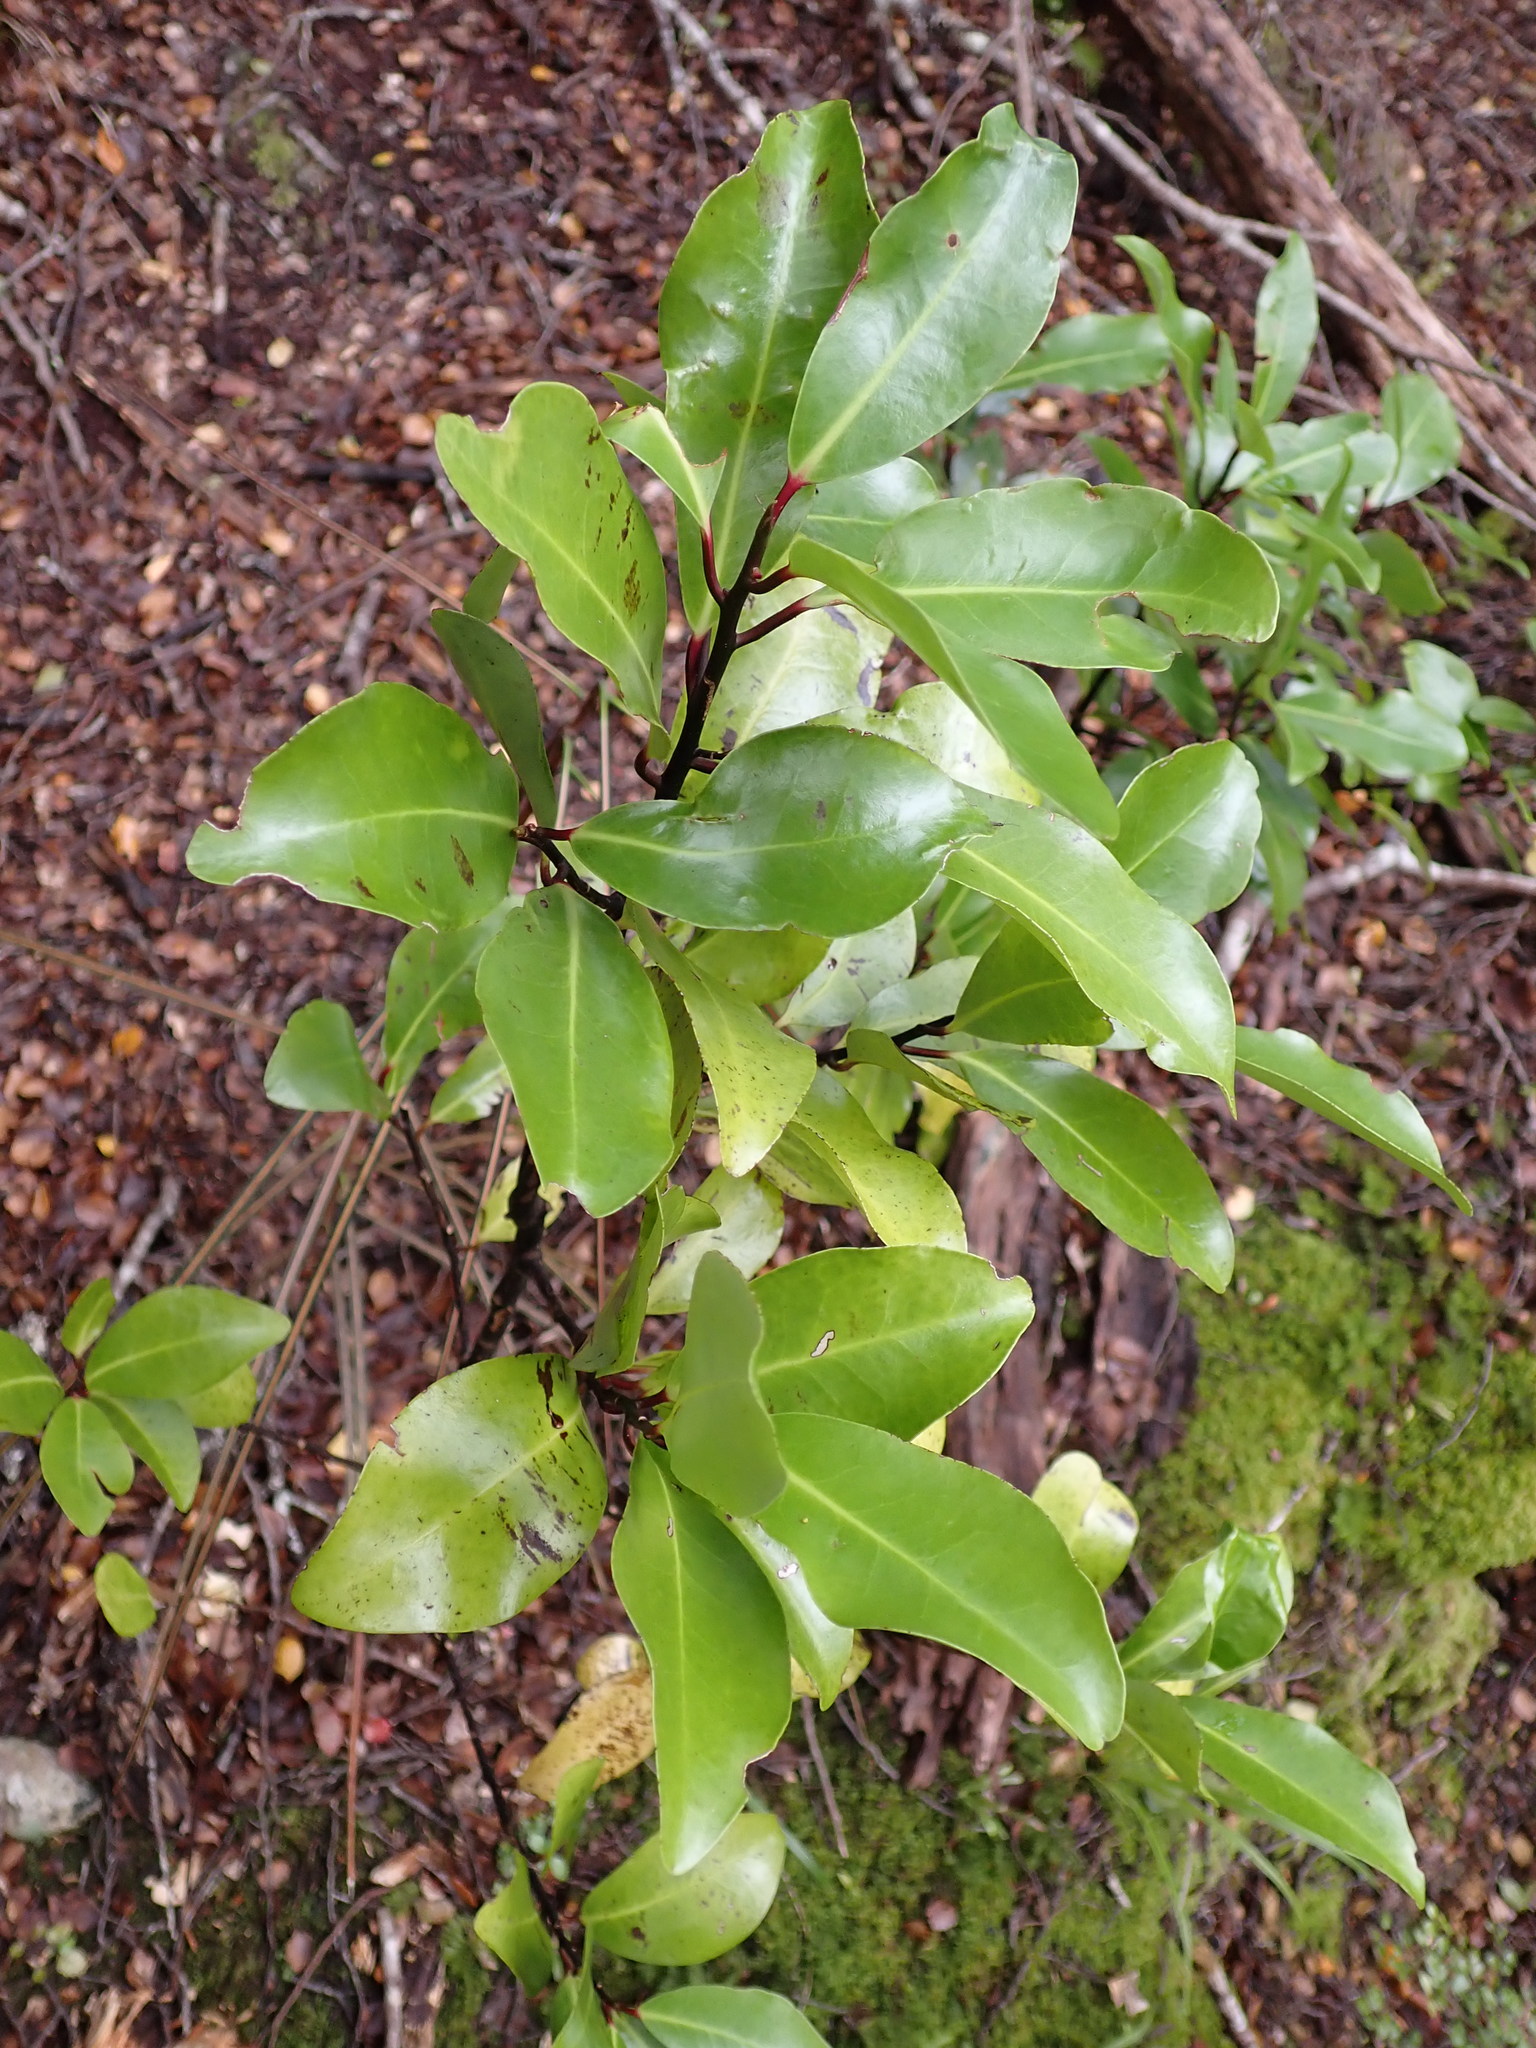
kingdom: Plantae
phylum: Tracheophyta
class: Magnoliopsida
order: Canellales
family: Winteraceae
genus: Pseudowintera
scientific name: Pseudowintera axillaris
